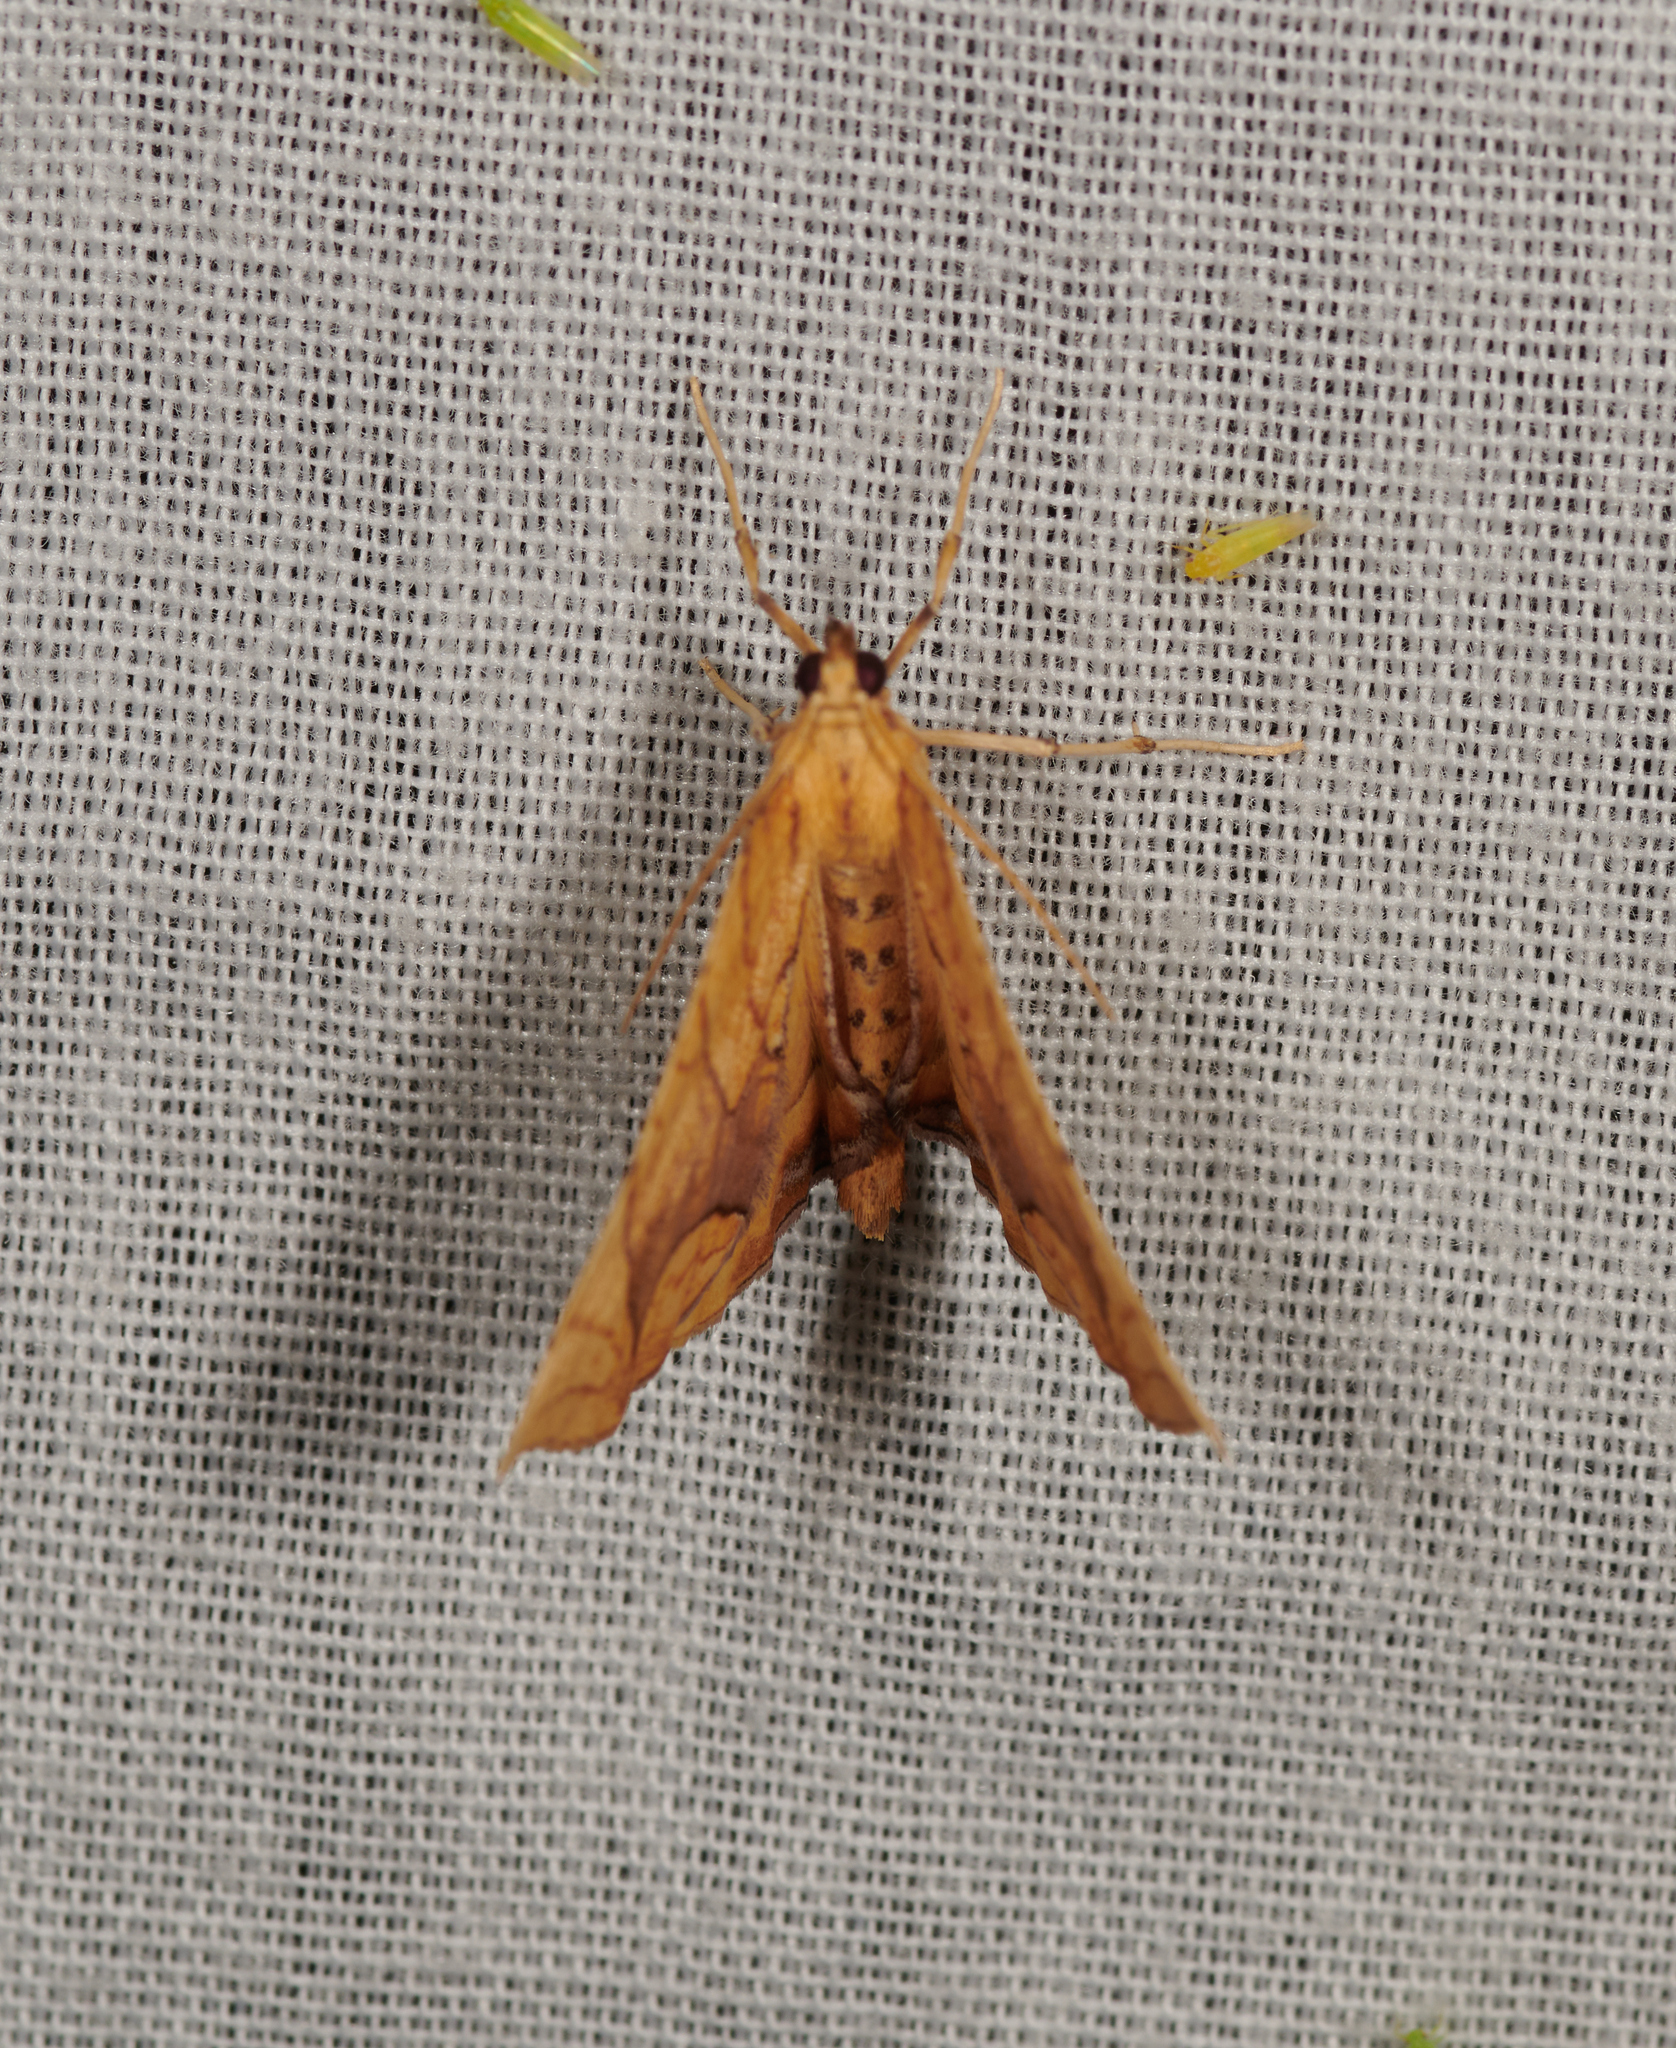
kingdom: Animalia
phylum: Arthropoda
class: Insecta
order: Lepidoptera
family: Geometridae
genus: Eulithis
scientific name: Eulithis
